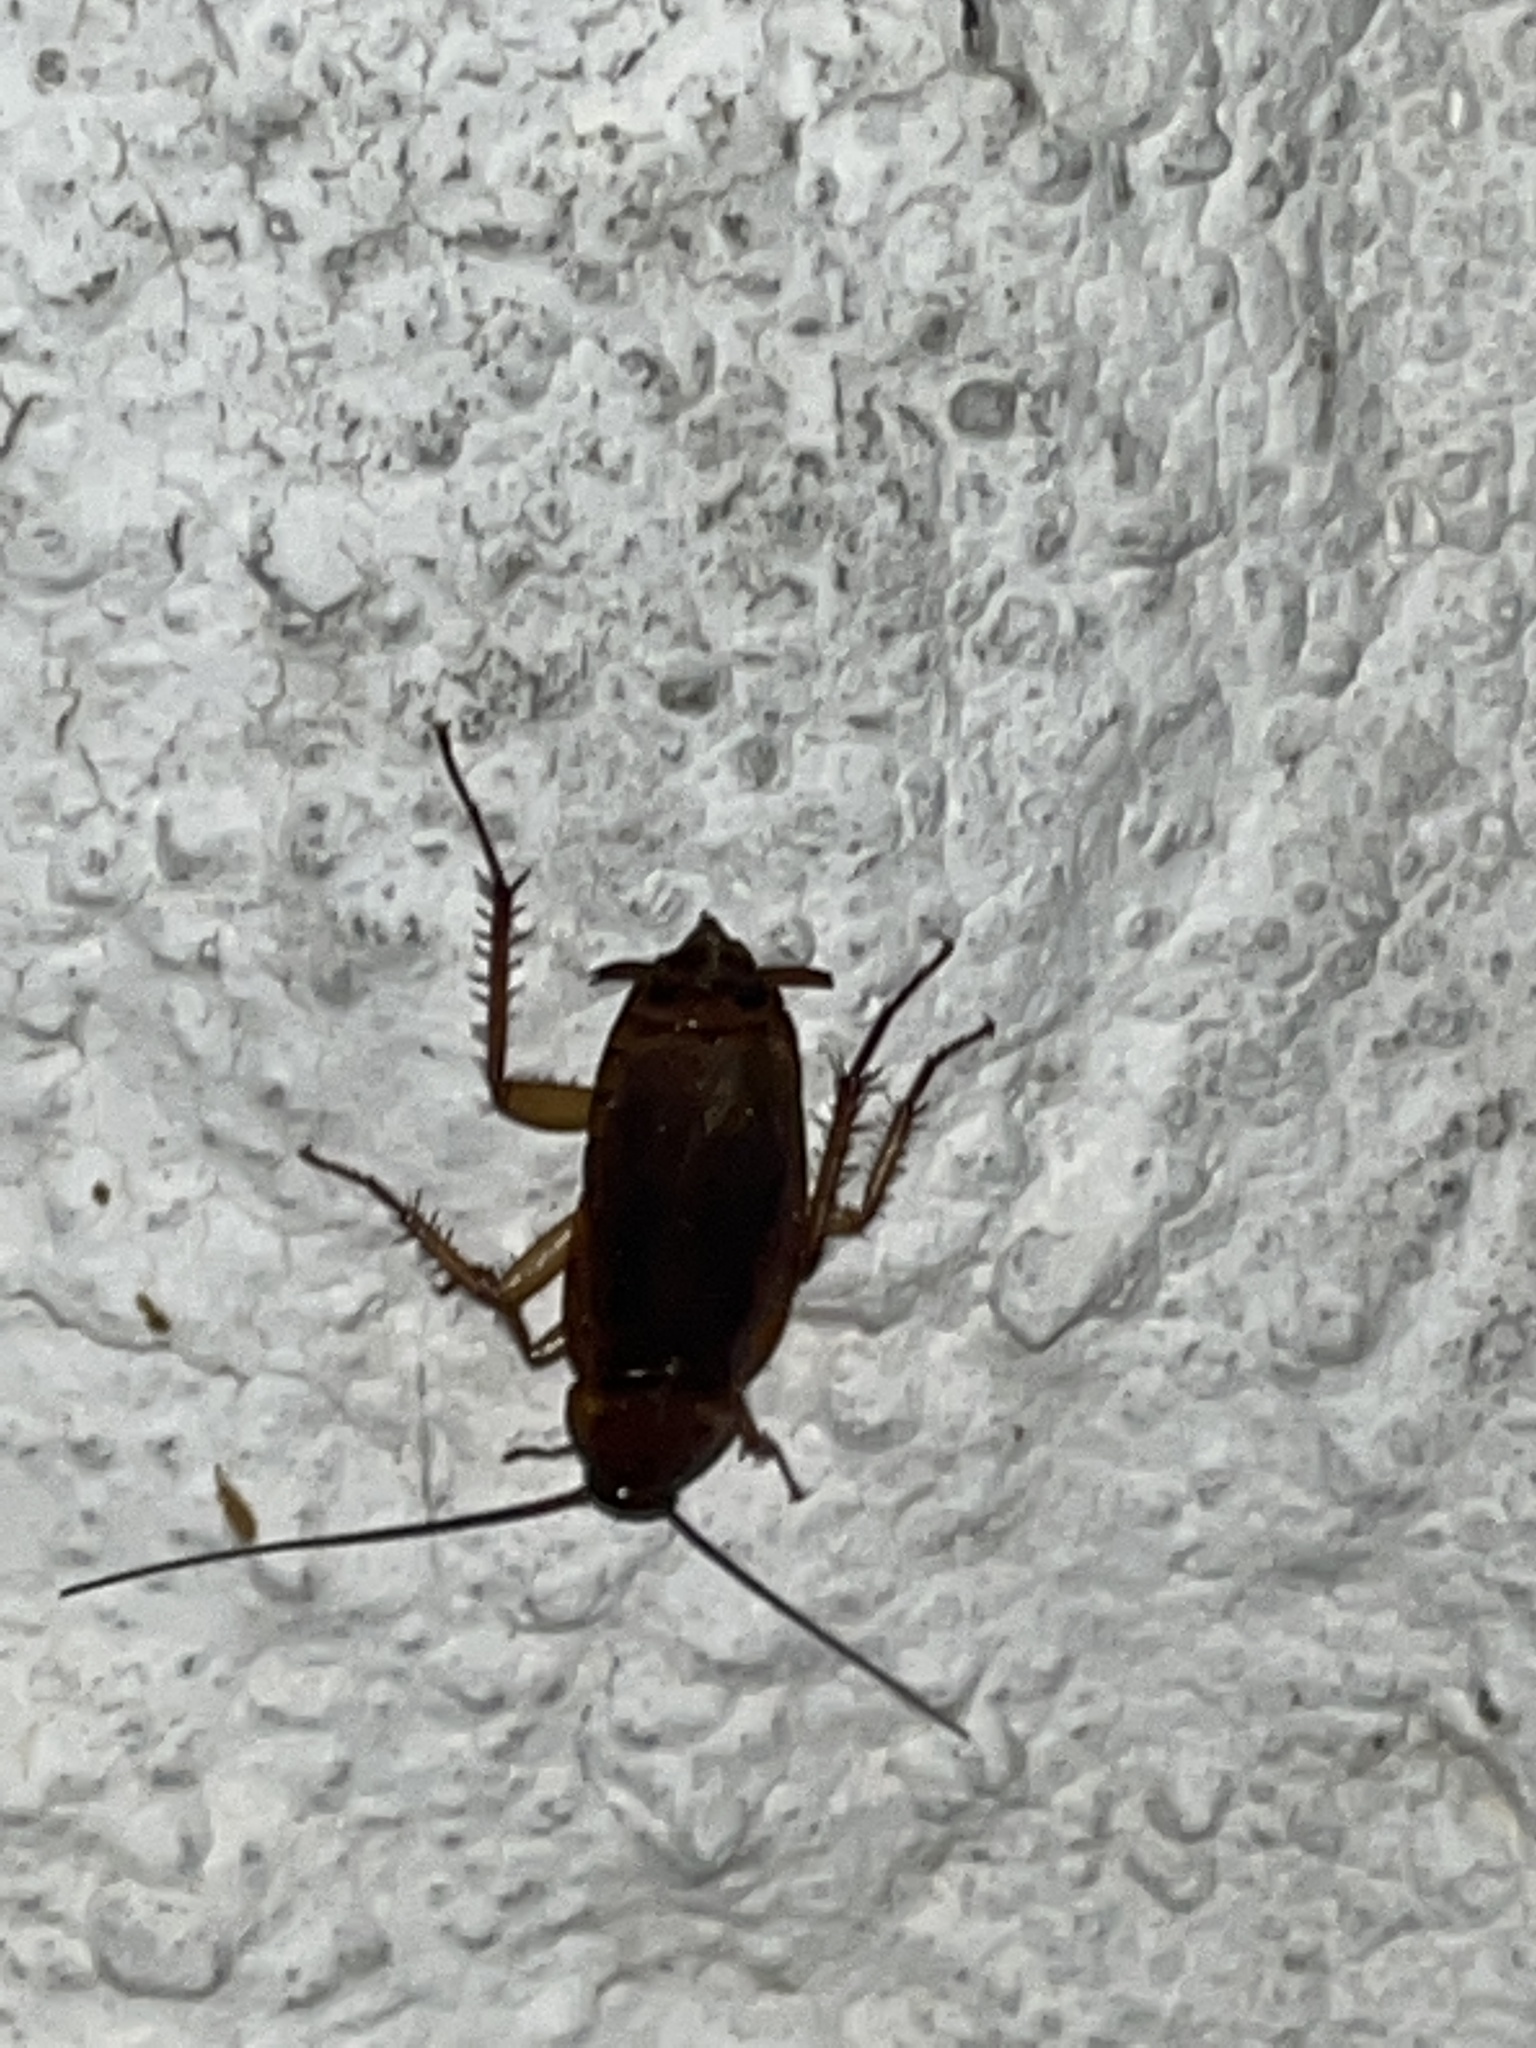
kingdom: Animalia
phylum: Arthropoda
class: Insecta
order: Blattodea
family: Blattidae
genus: Periplaneta
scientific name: Periplaneta americana
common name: American cockroach
